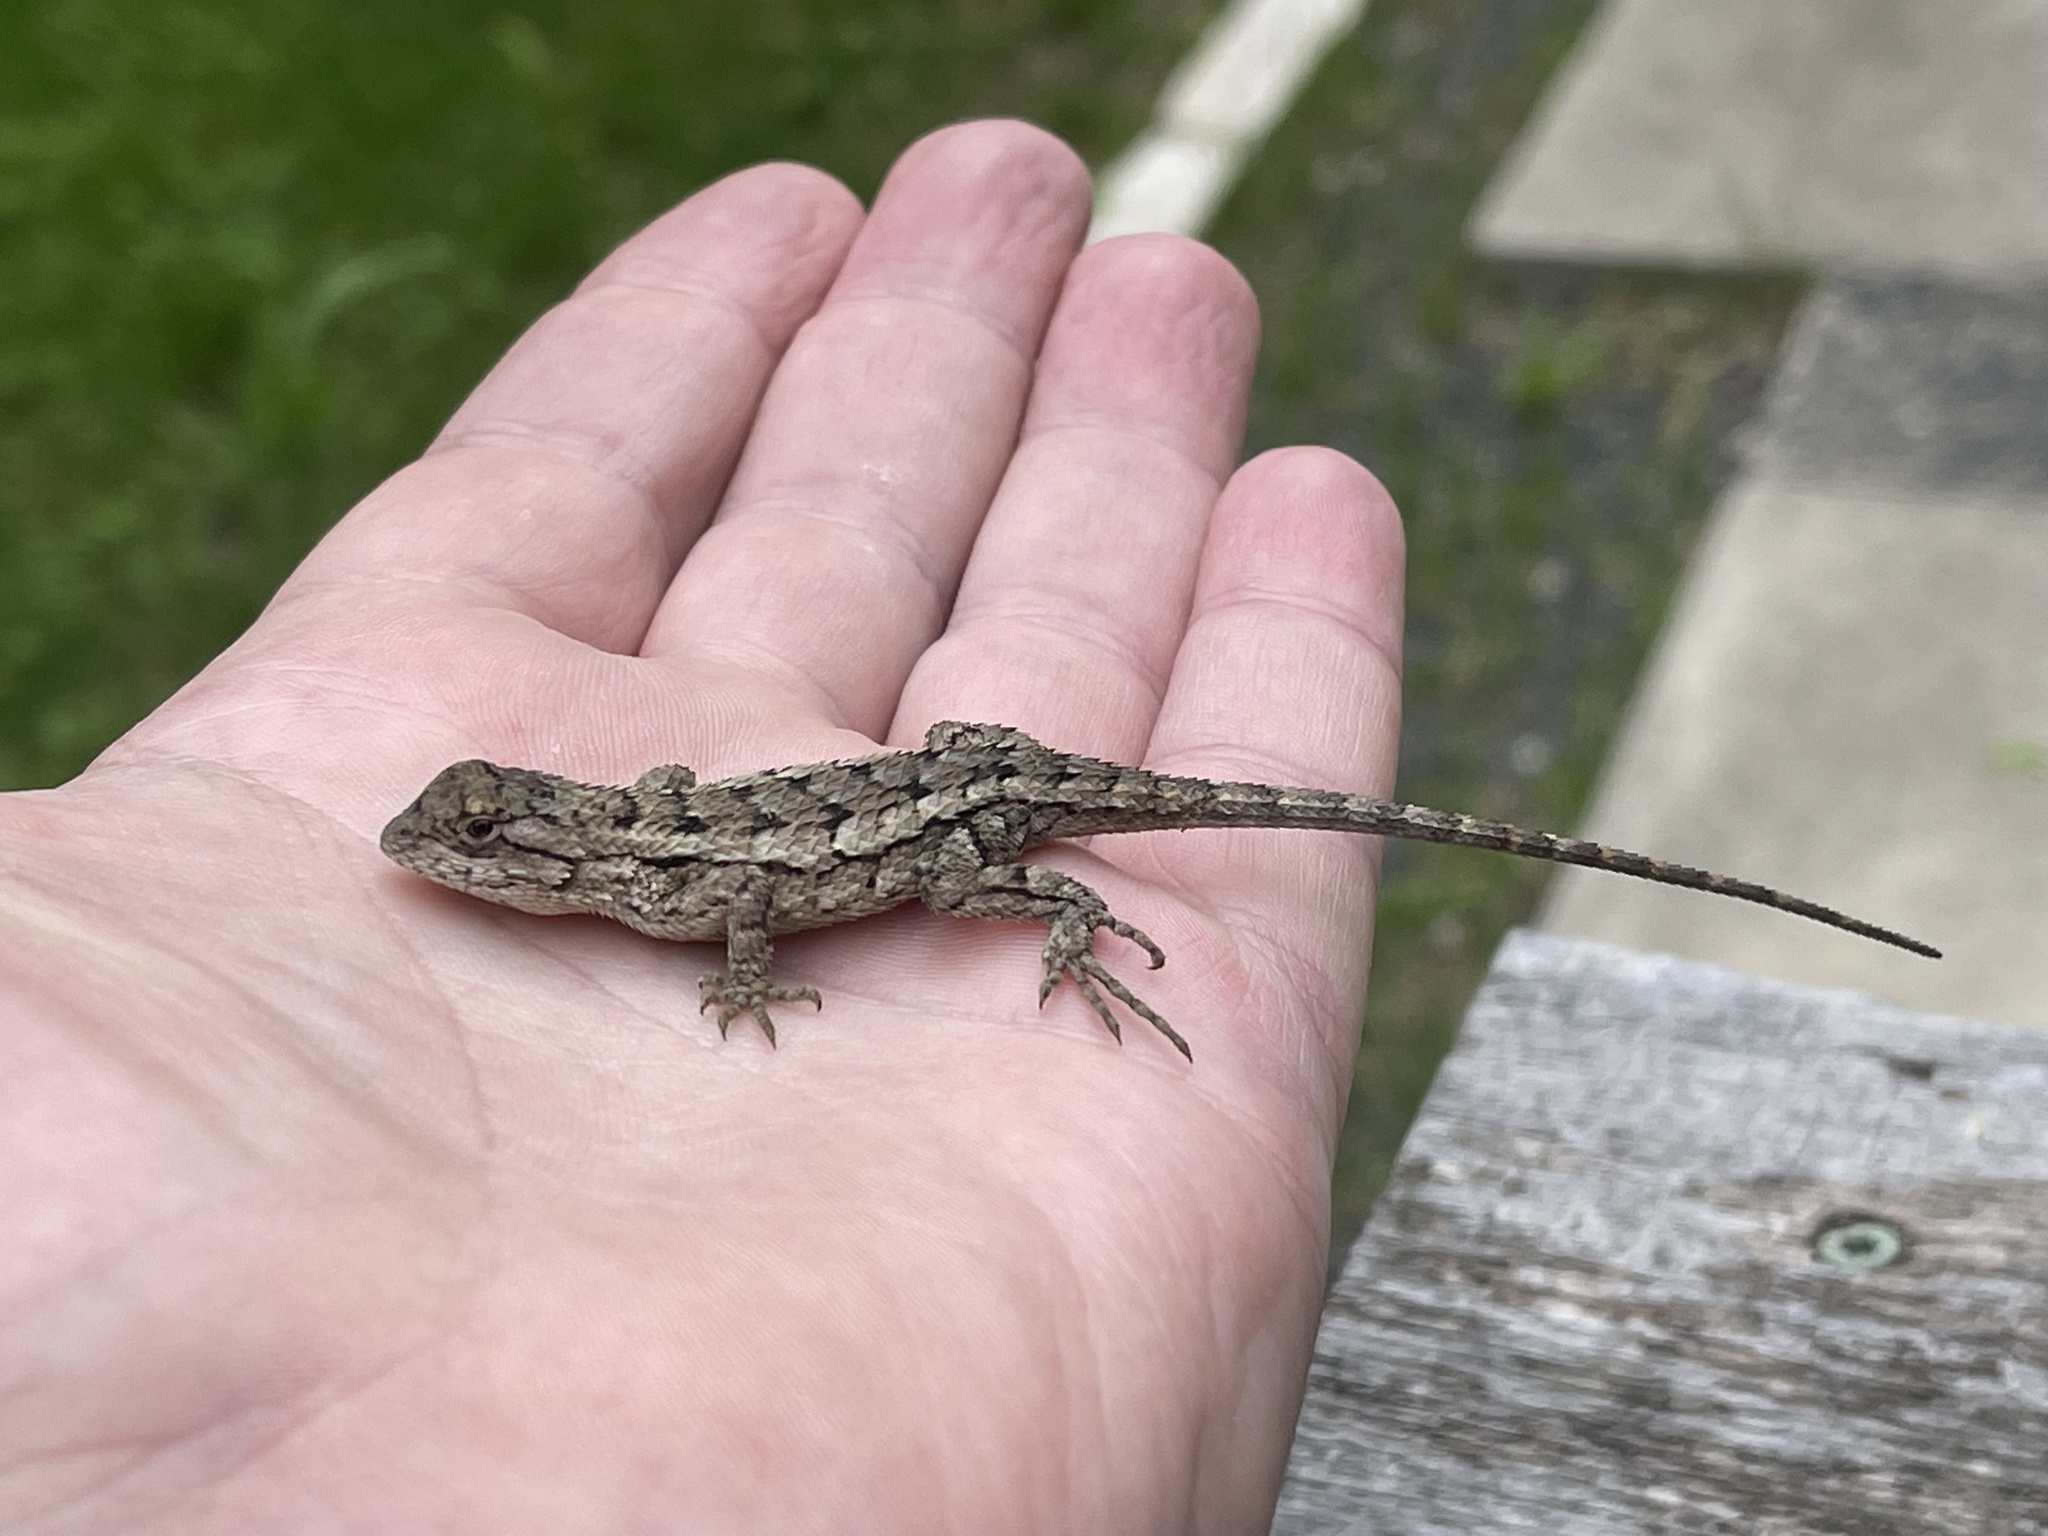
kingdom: Animalia
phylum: Chordata
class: Squamata
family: Phrynosomatidae
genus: Sceloporus
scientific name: Sceloporus olivaceus
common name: Texas spiny lizard
